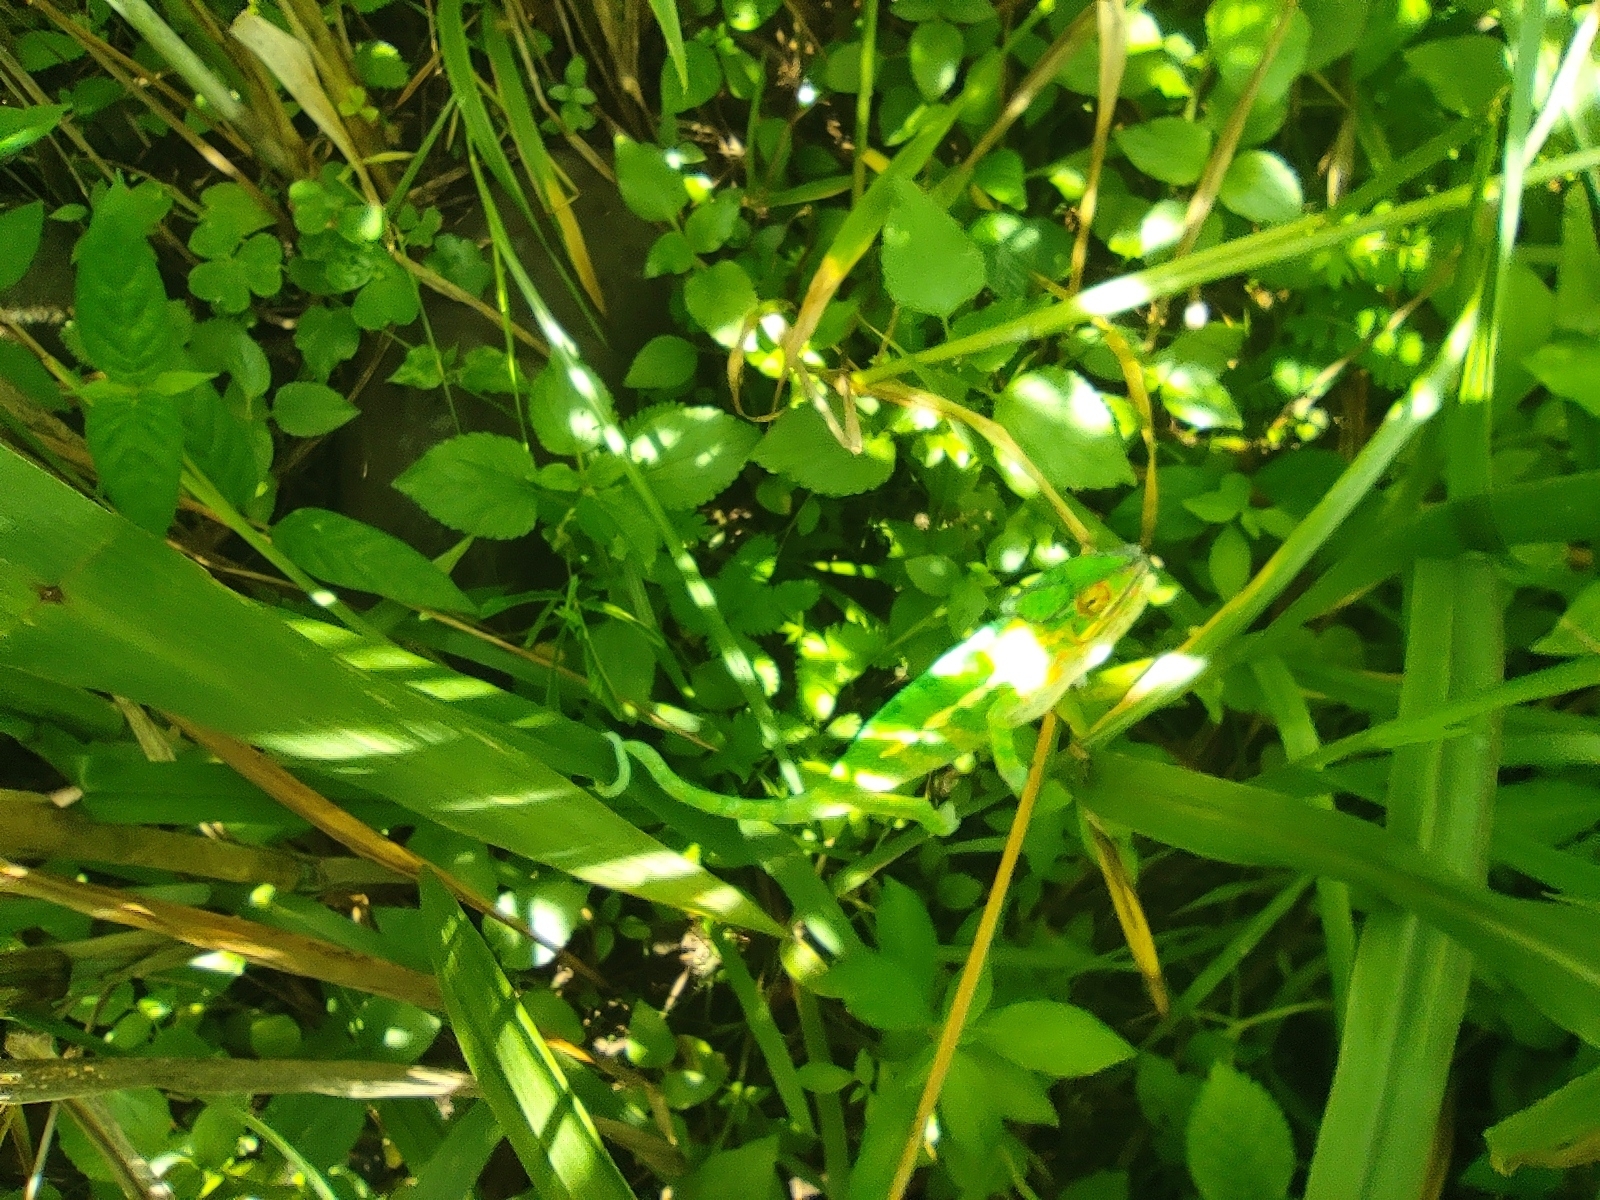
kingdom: Animalia
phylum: Chordata
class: Squamata
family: Chamaeleonidae
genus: Furcifer
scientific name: Furcifer pardalis
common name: Panther chameleon
